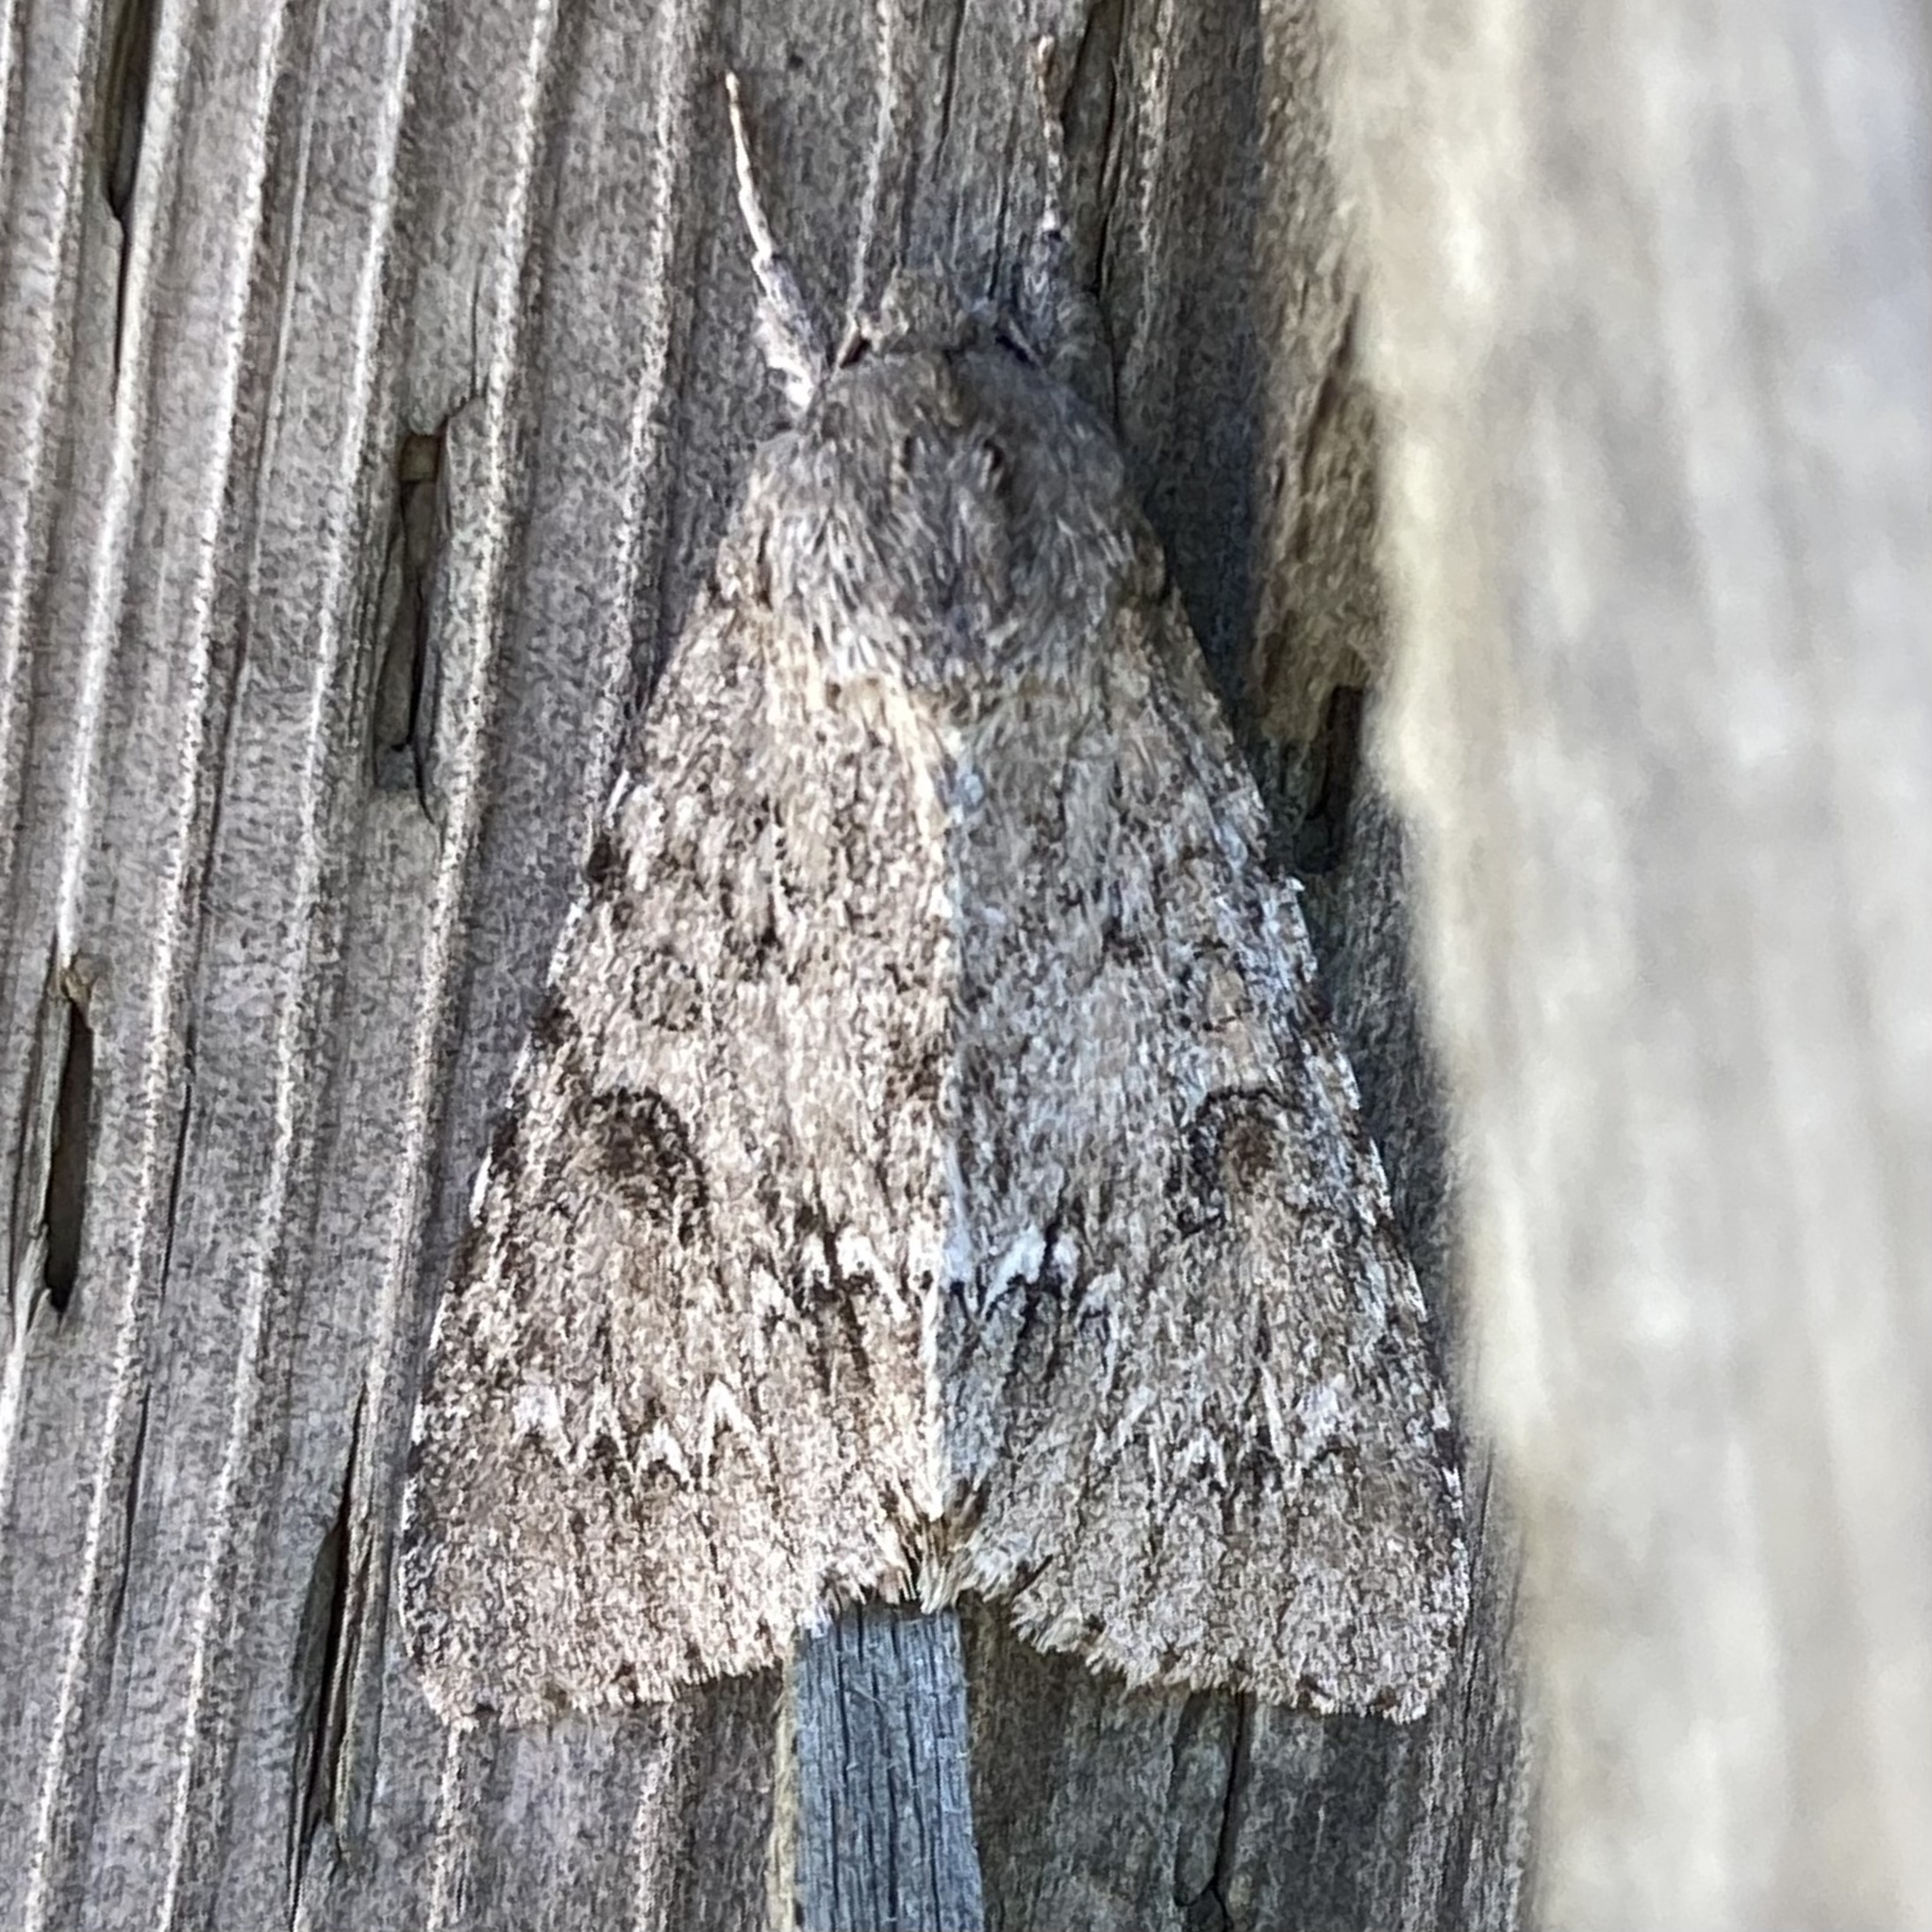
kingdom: Animalia
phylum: Arthropoda
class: Insecta
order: Lepidoptera
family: Noctuidae
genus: Acronicta
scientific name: Acronicta americana
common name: American dagger
